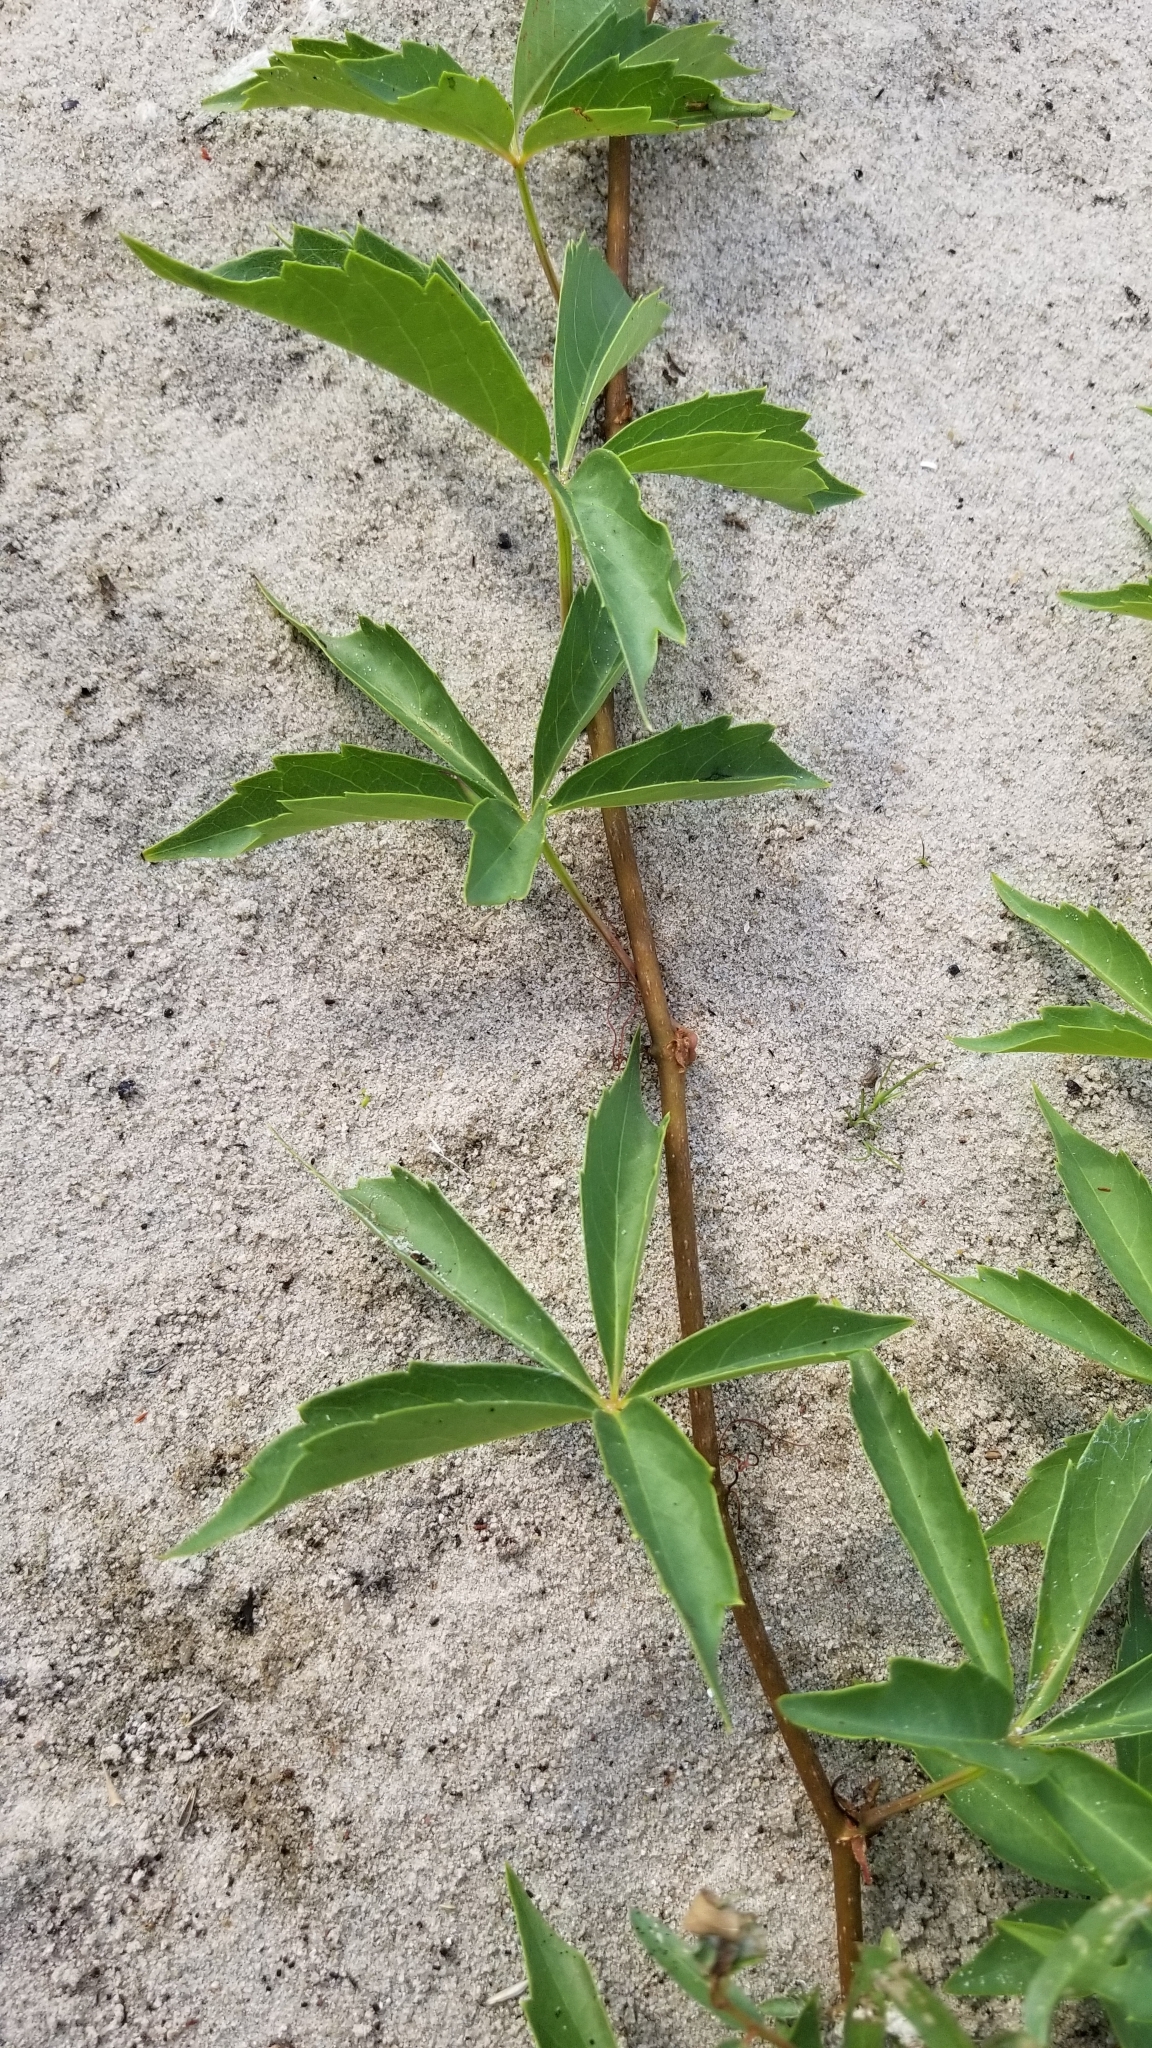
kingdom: Plantae
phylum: Tracheophyta
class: Magnoliopsida
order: Vitales
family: Vitaceae
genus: Parthenocissus
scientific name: Parthenocissus quinquefolia
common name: Virginia-creeper
